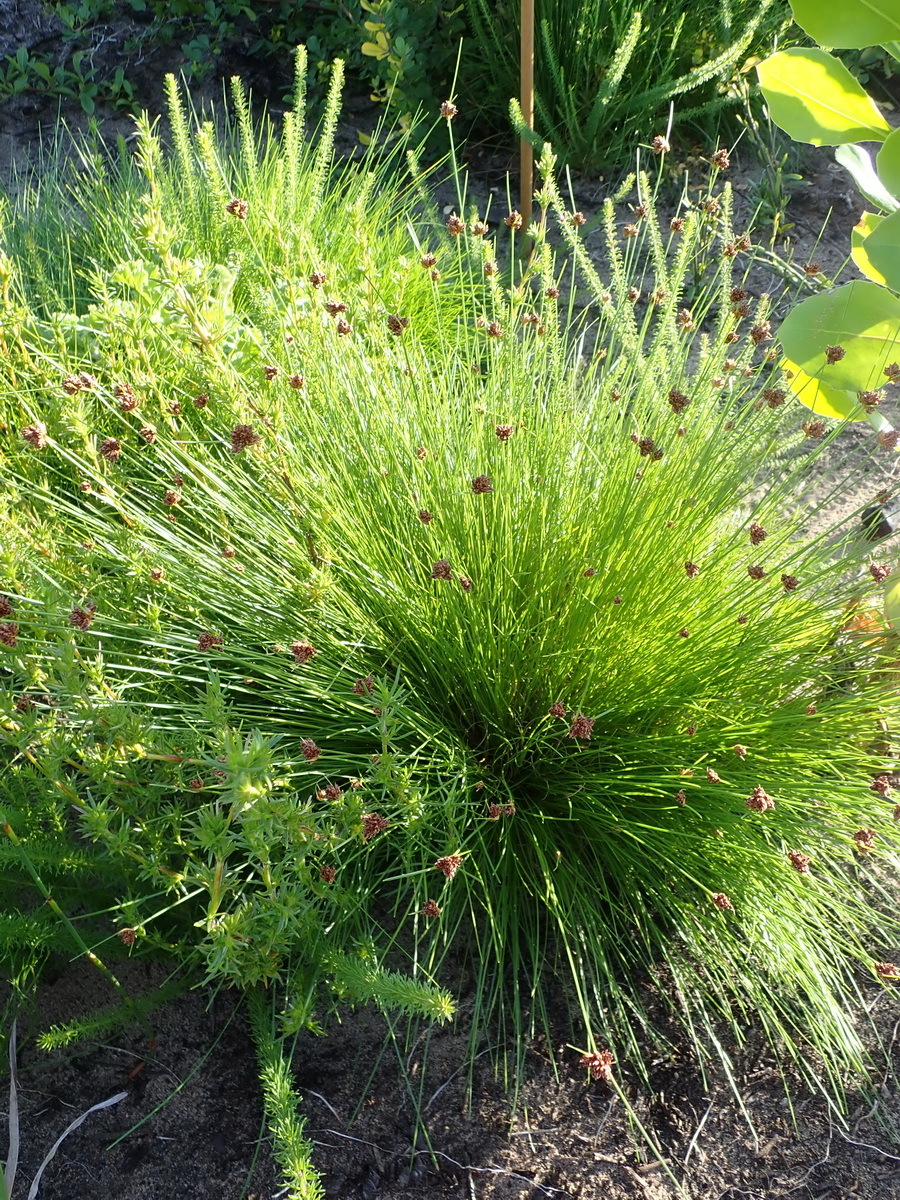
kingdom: Plantae
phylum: Tracheophyta
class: Liliopsida
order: Poales
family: Cyperaceae
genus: Ficinia
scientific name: Ficinia laciniata
